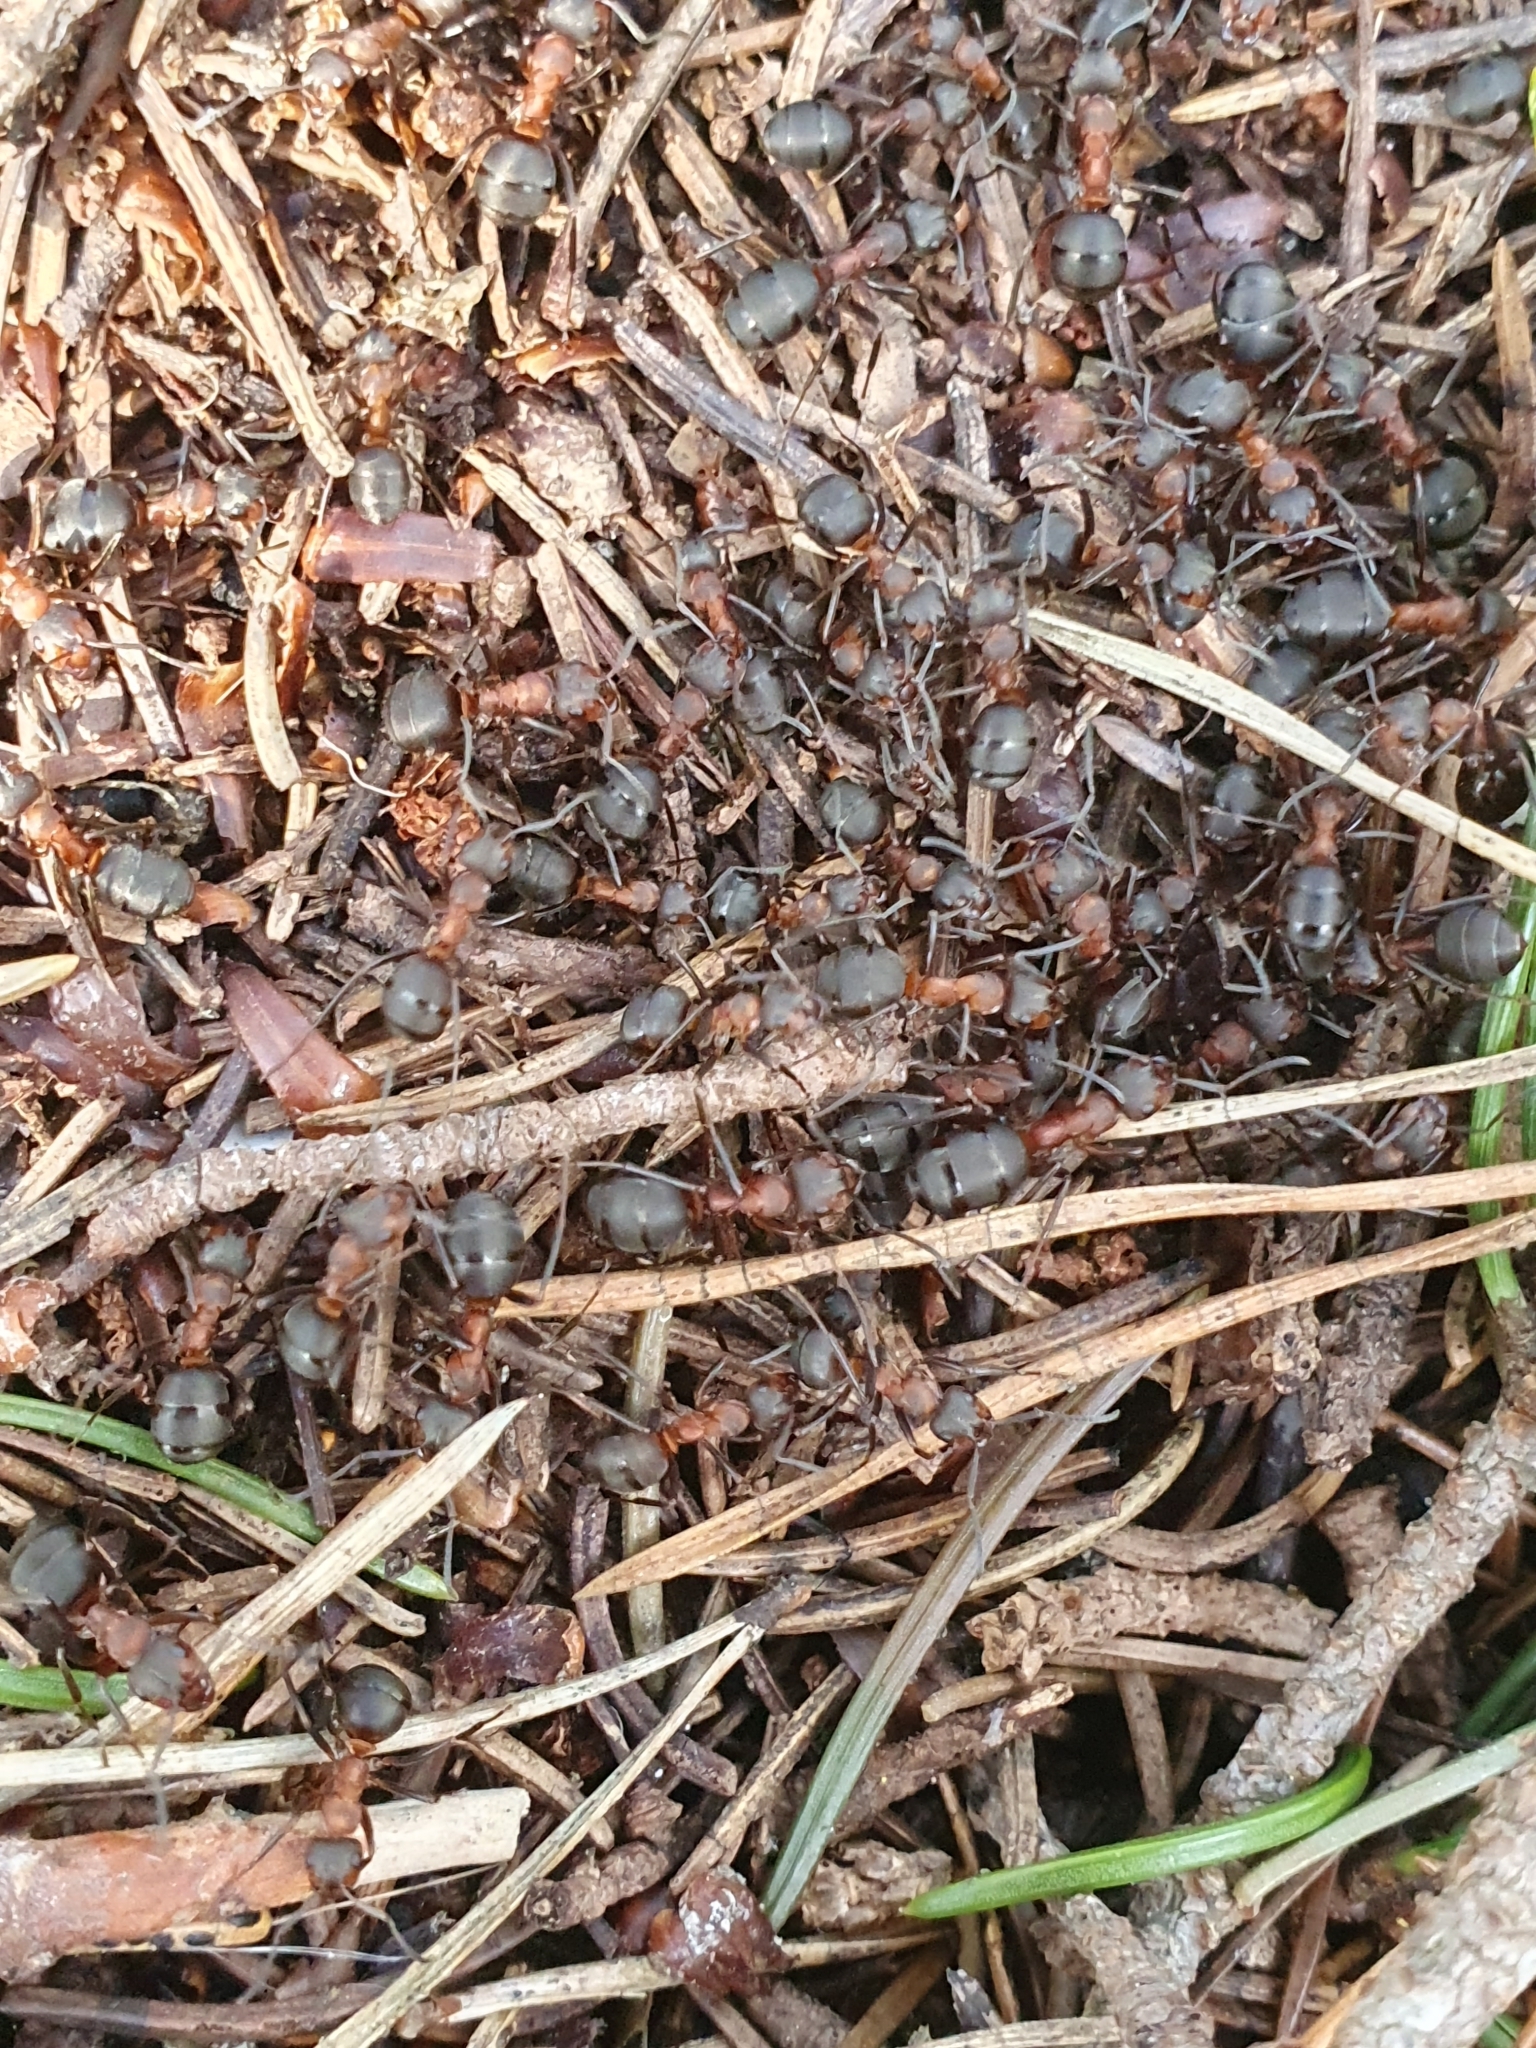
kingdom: Animalia
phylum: Arthropoda
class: Insecta
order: Hymenoptera
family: Formicidae
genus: Formica
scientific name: Formica
